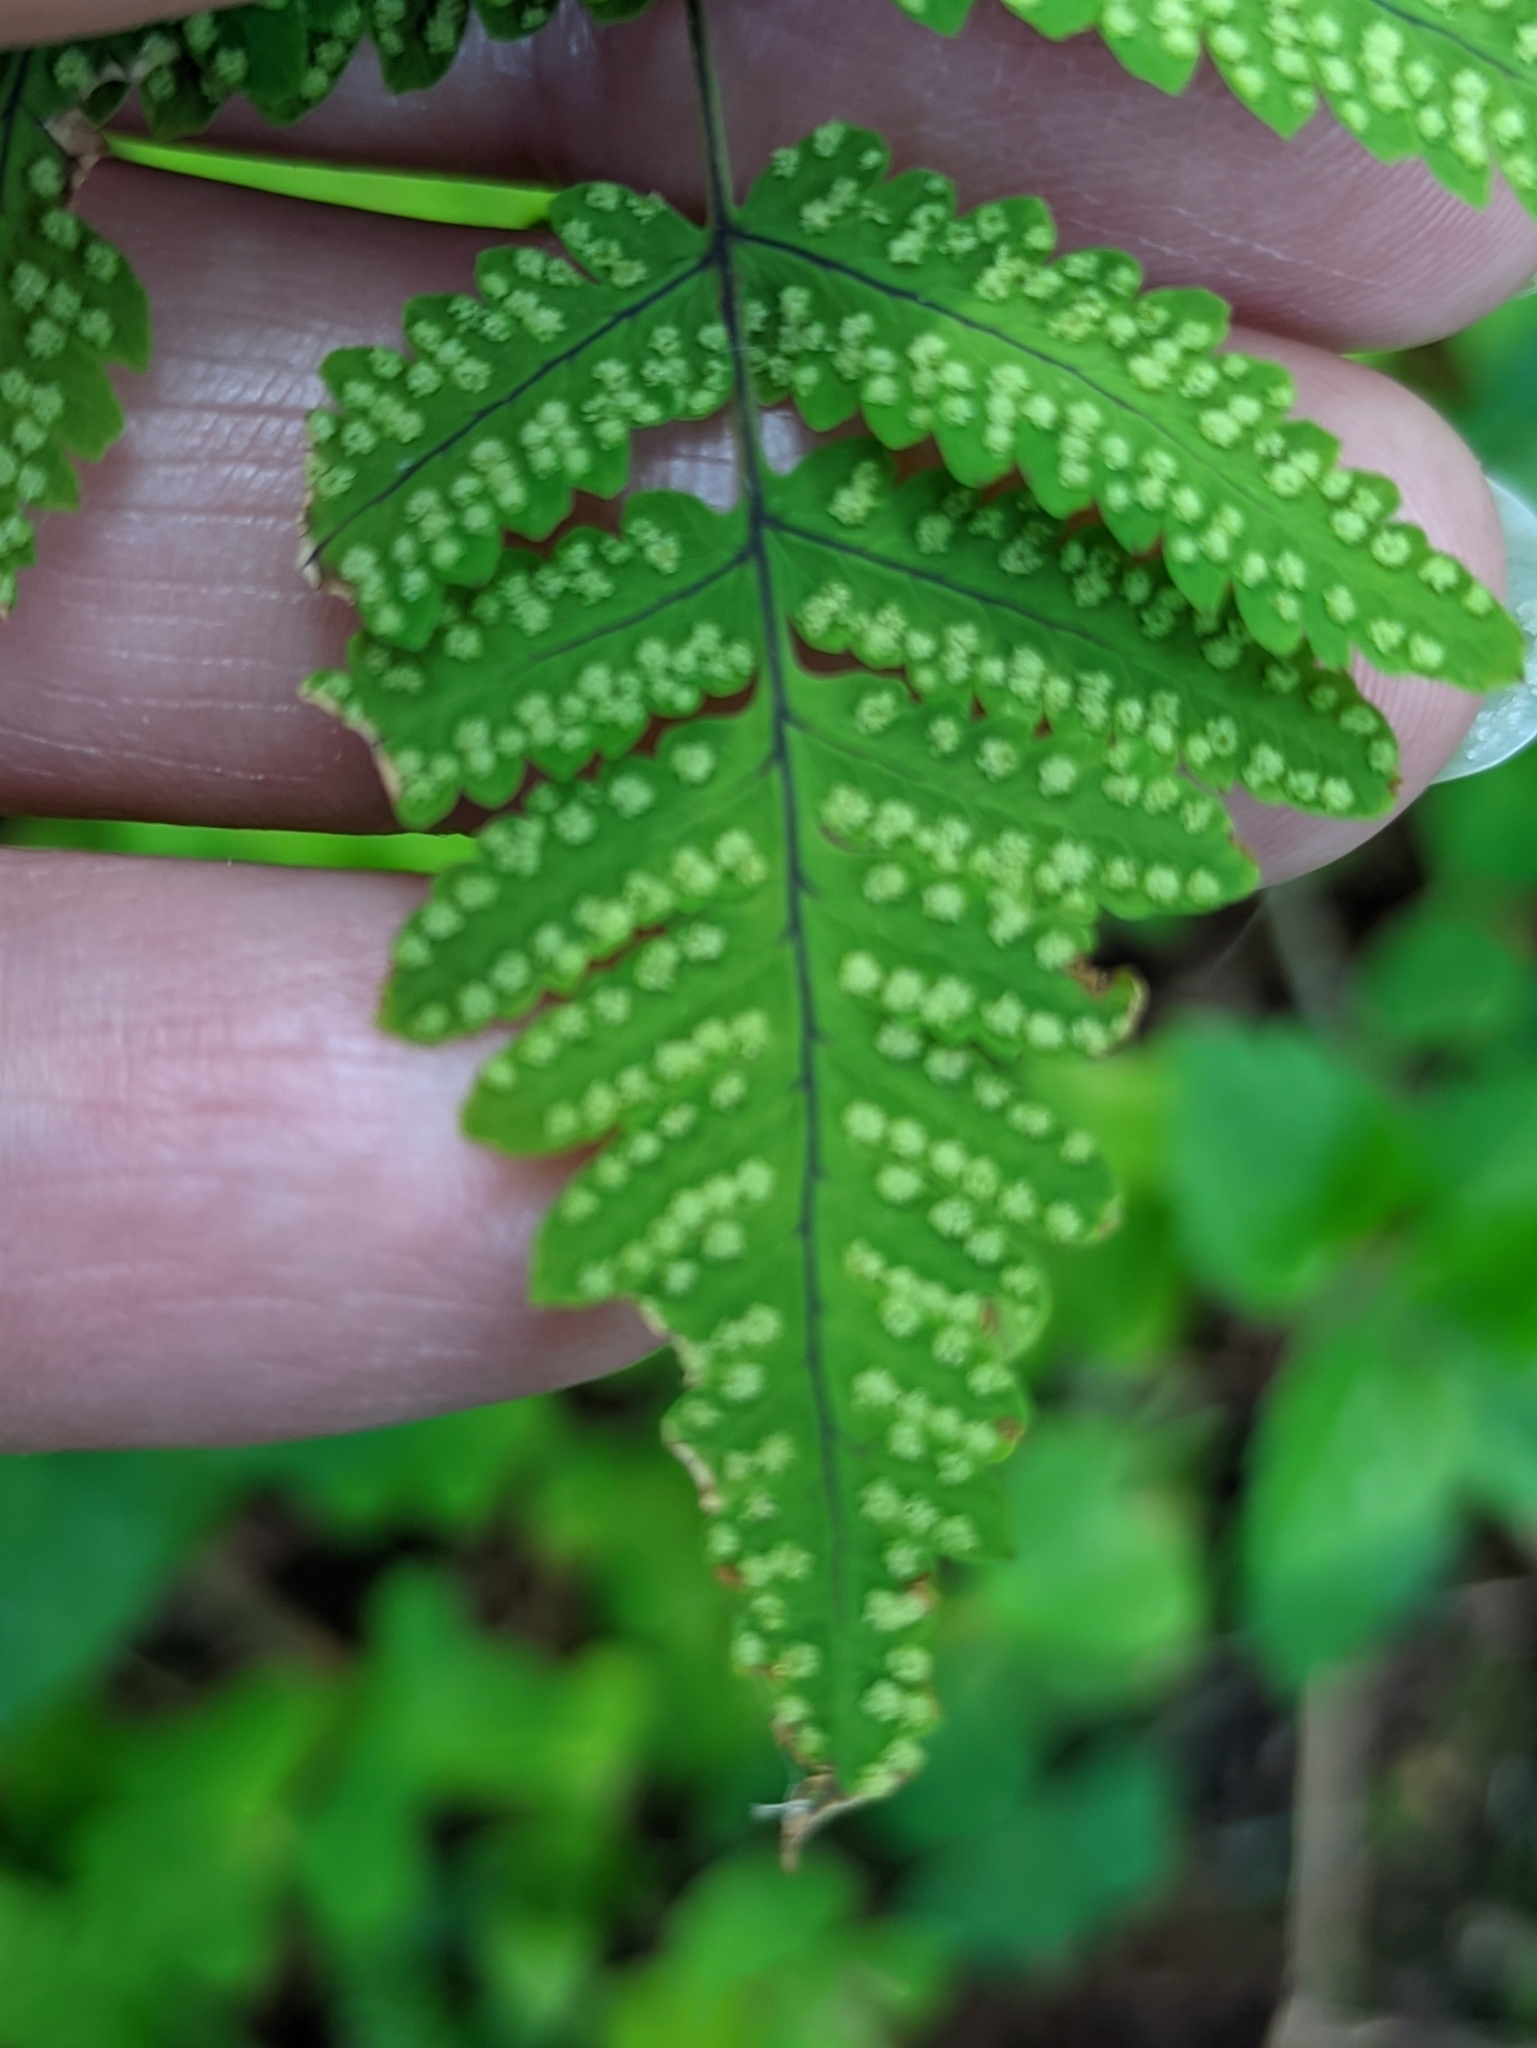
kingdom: Plantae
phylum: Tracheophyta
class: Polypodiopsida
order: Polypodiales
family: Cystopteridaceae
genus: Gymnocarpium
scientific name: Gymnocarpium dryopteris
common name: Oak fern
